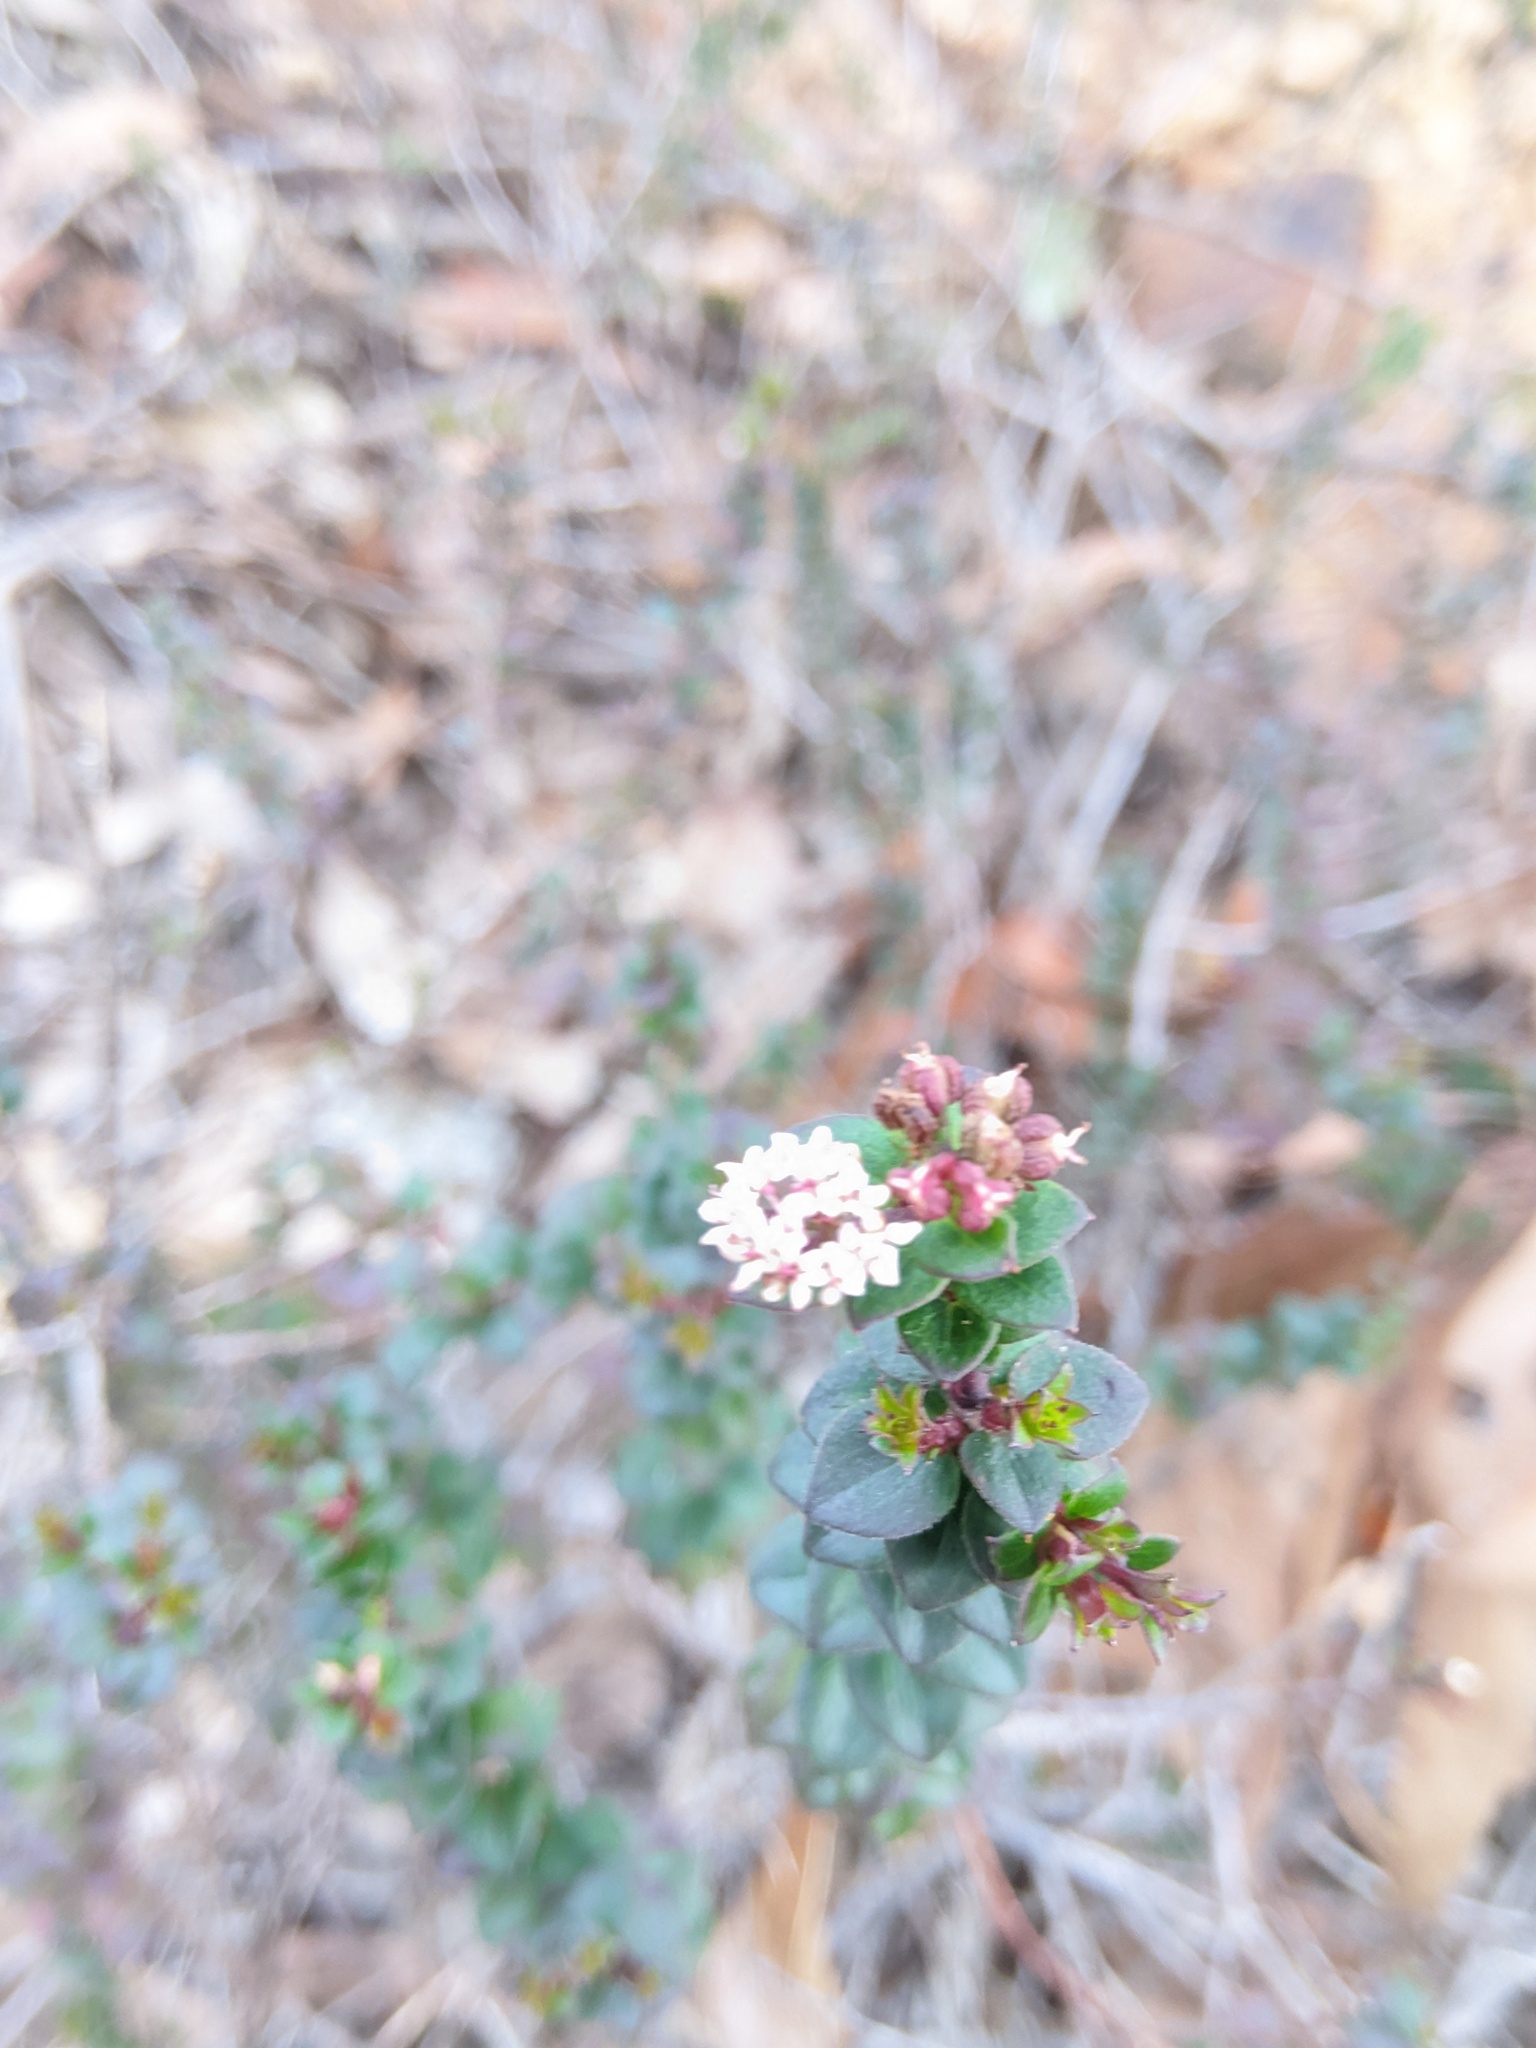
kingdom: Plantae
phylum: Tracheophyta
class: Magnoliopsida
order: Apiales
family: Apiaceae
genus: Platysace
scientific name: Platysace lanceolata
